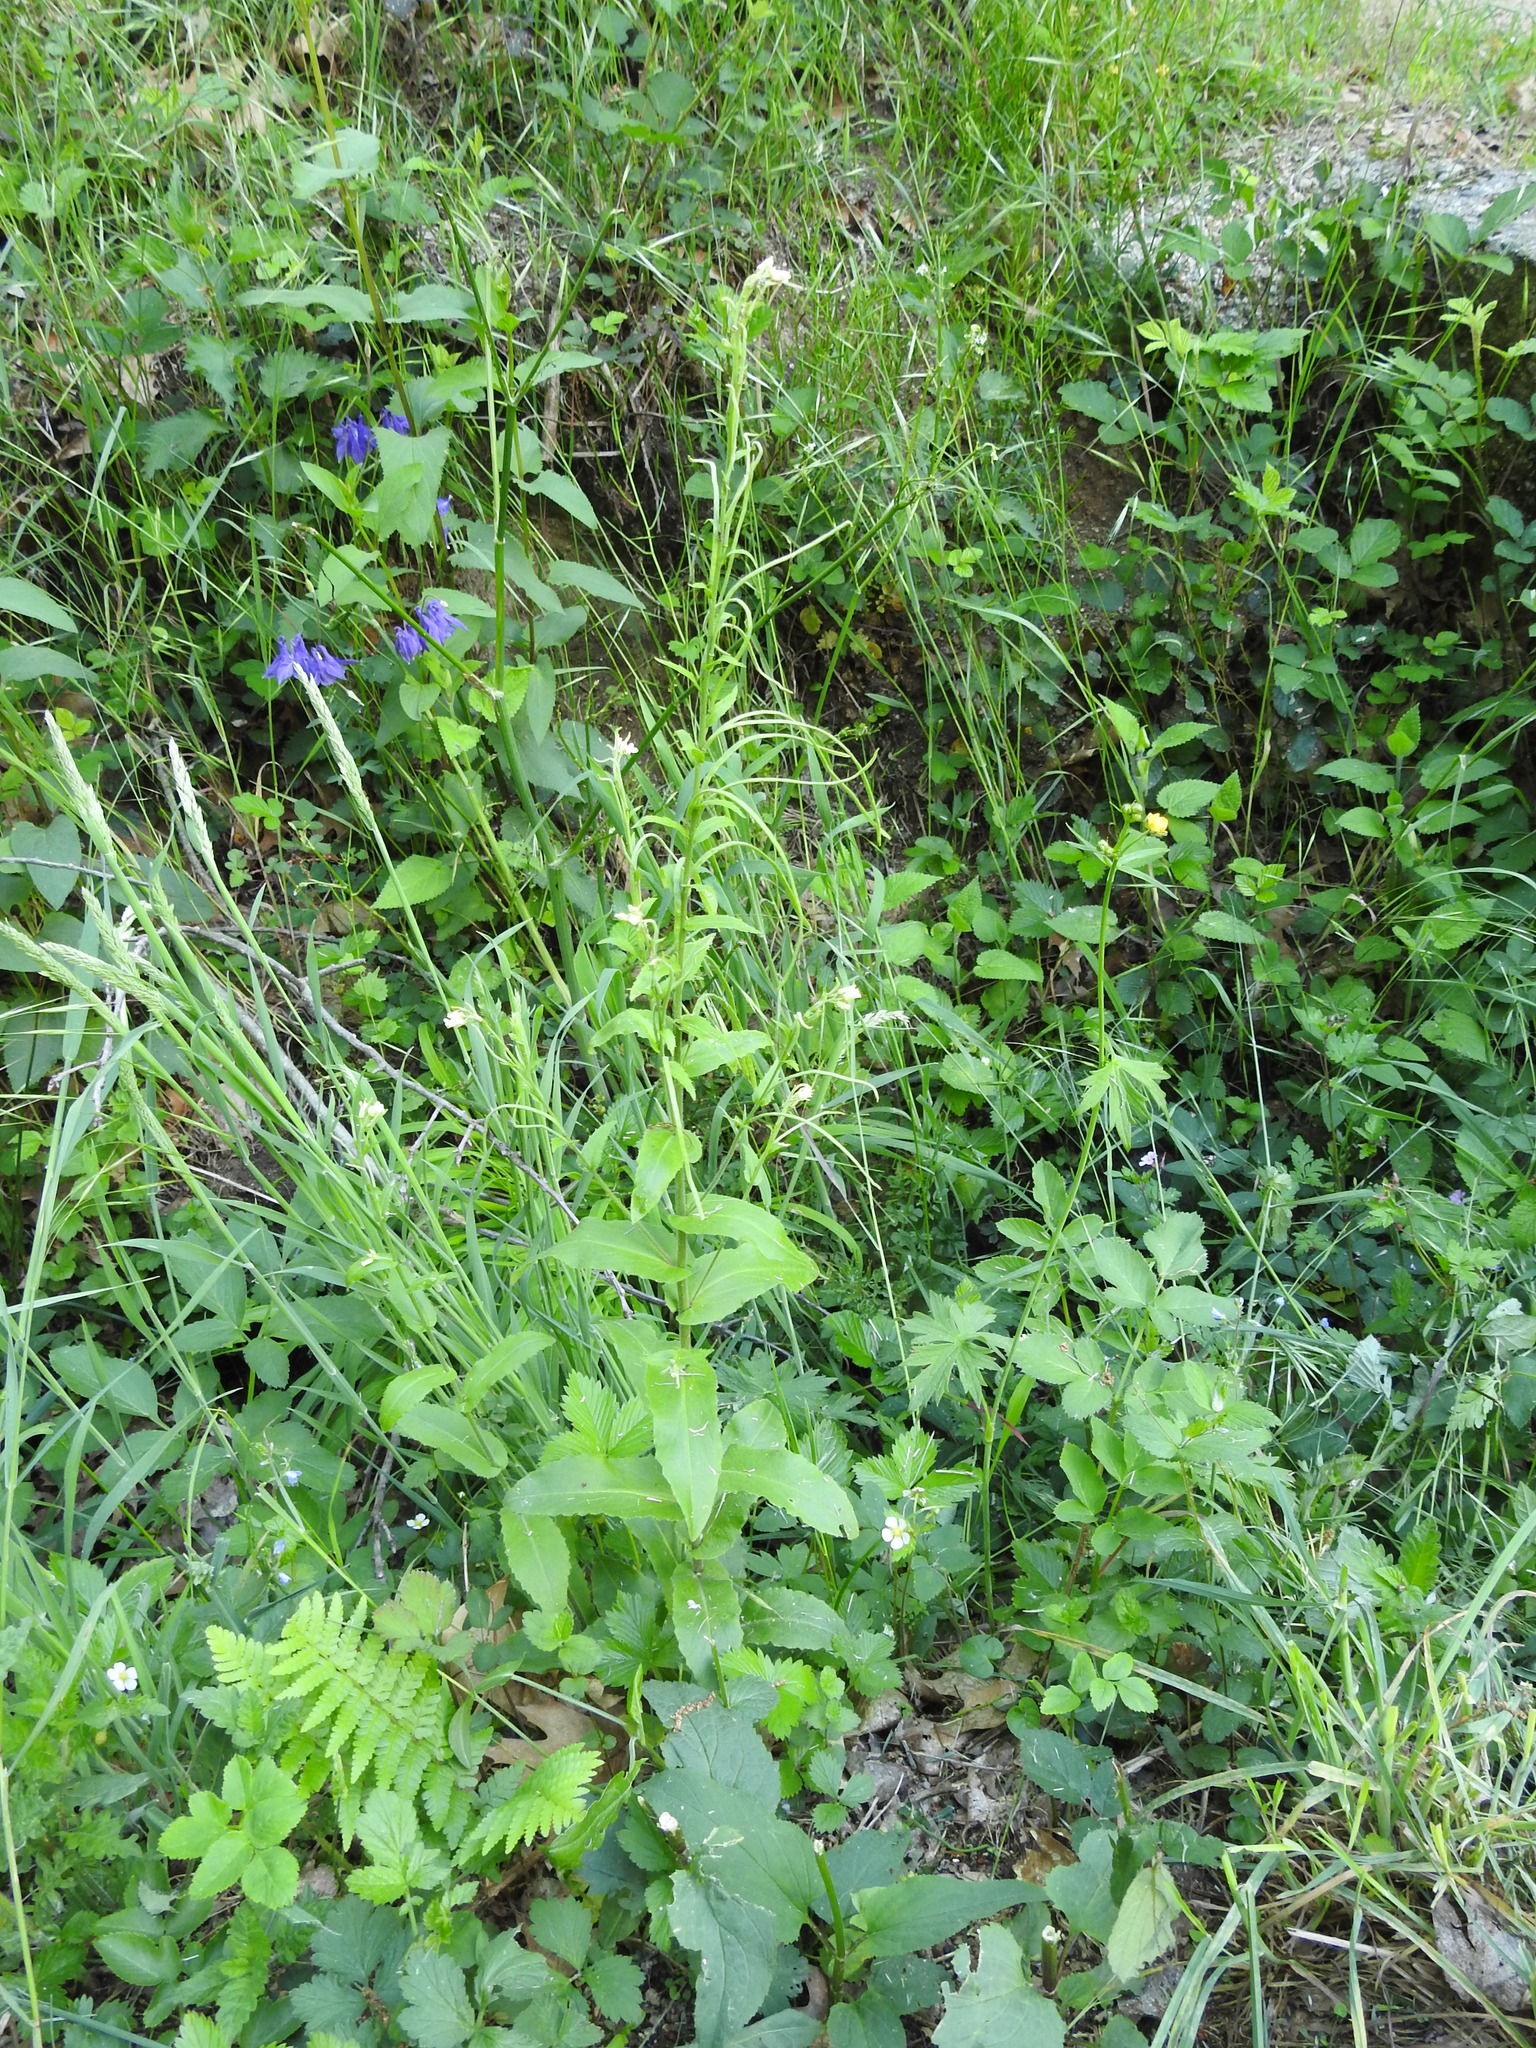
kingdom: Plantae
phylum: Tracheophyta
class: Magnoliopsida
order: Brassicales
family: Brassicaceae
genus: Pseudoturritis
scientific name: Pseudoturritis turrita
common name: Tower cress
